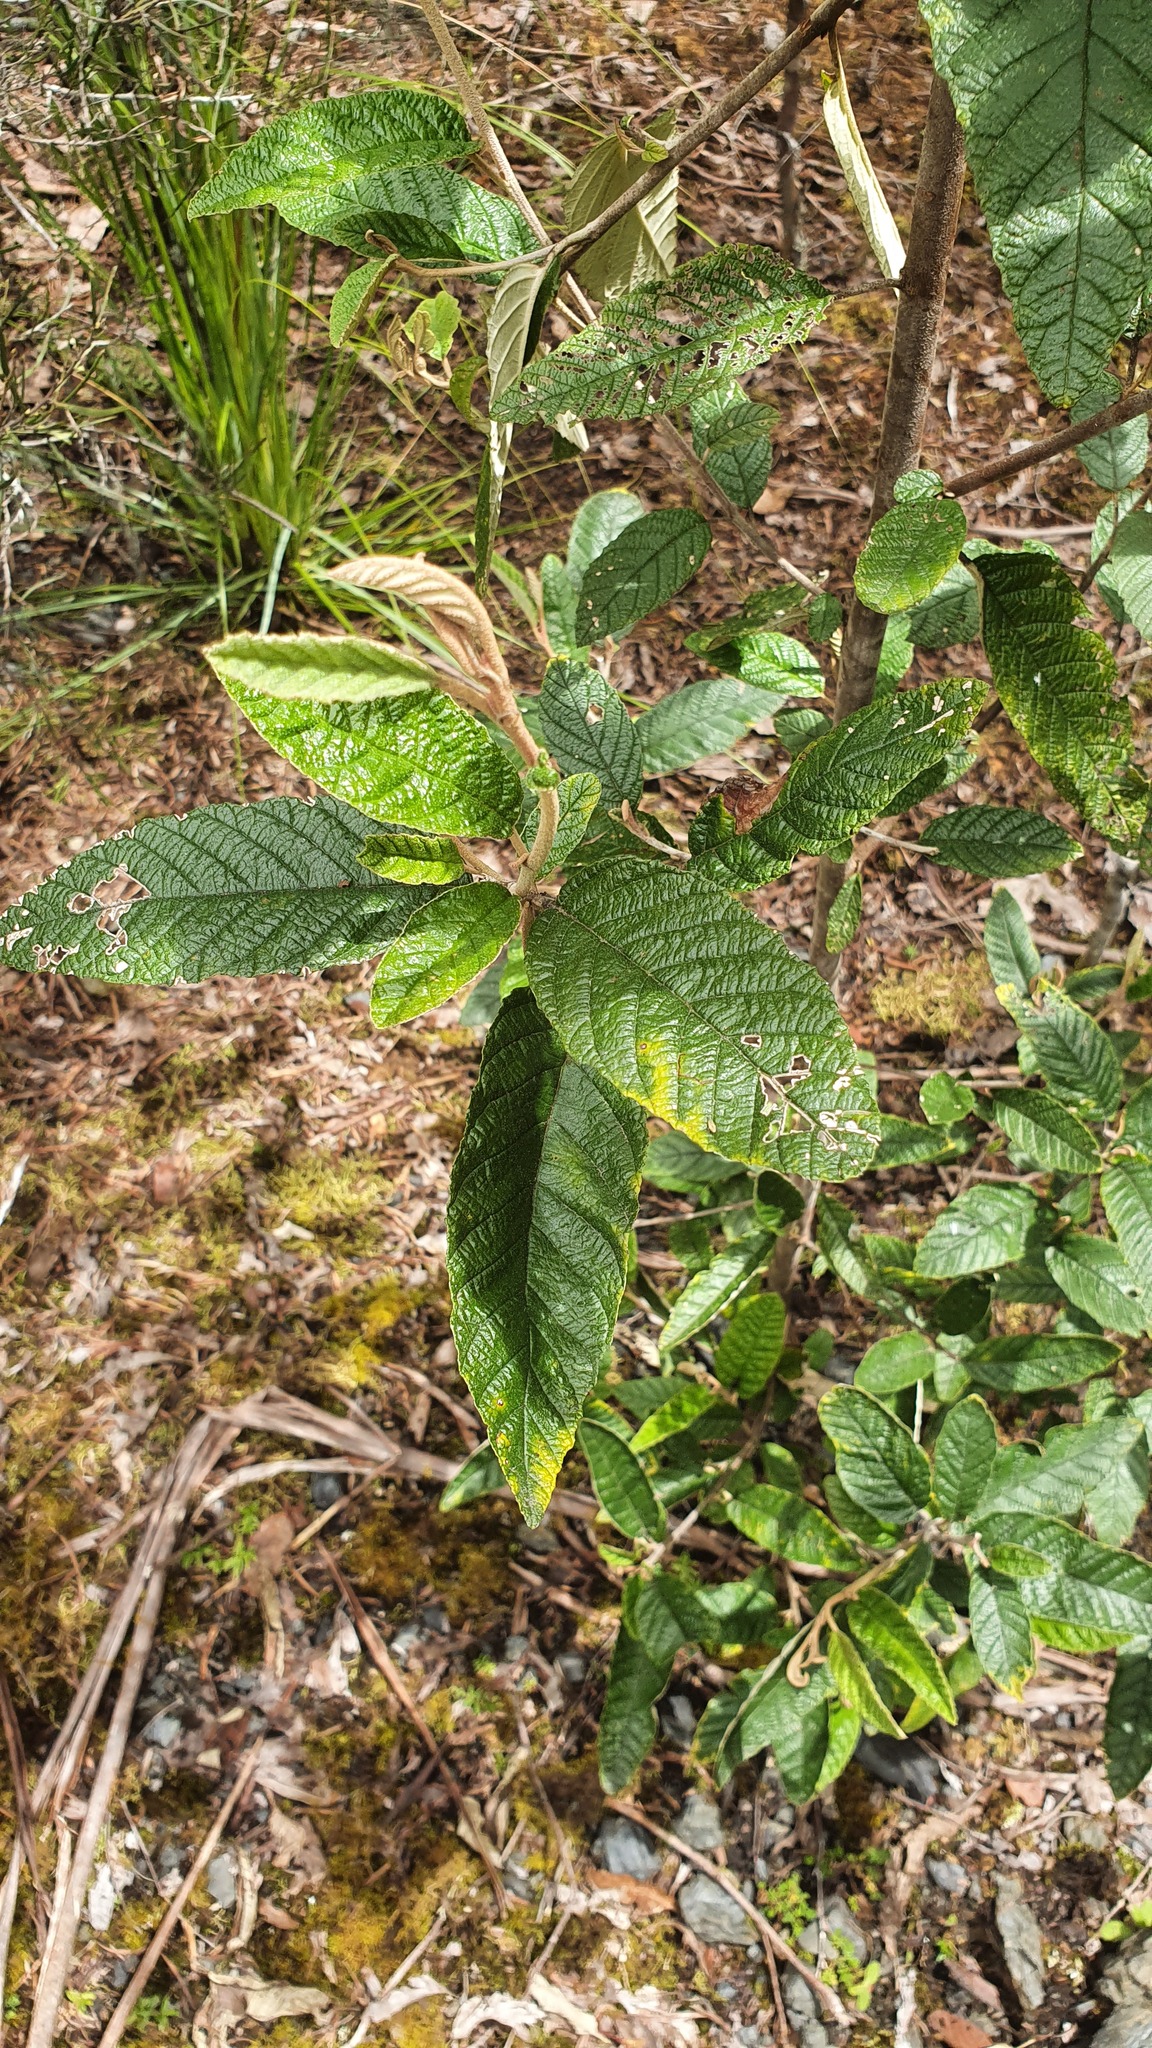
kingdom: Plantae
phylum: Tracheophyta
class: Magnoliopsida
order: Rosales
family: Rhamnaceae
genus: Pomaderris
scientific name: Pomaderris apetala
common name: Hazel pomaderris
